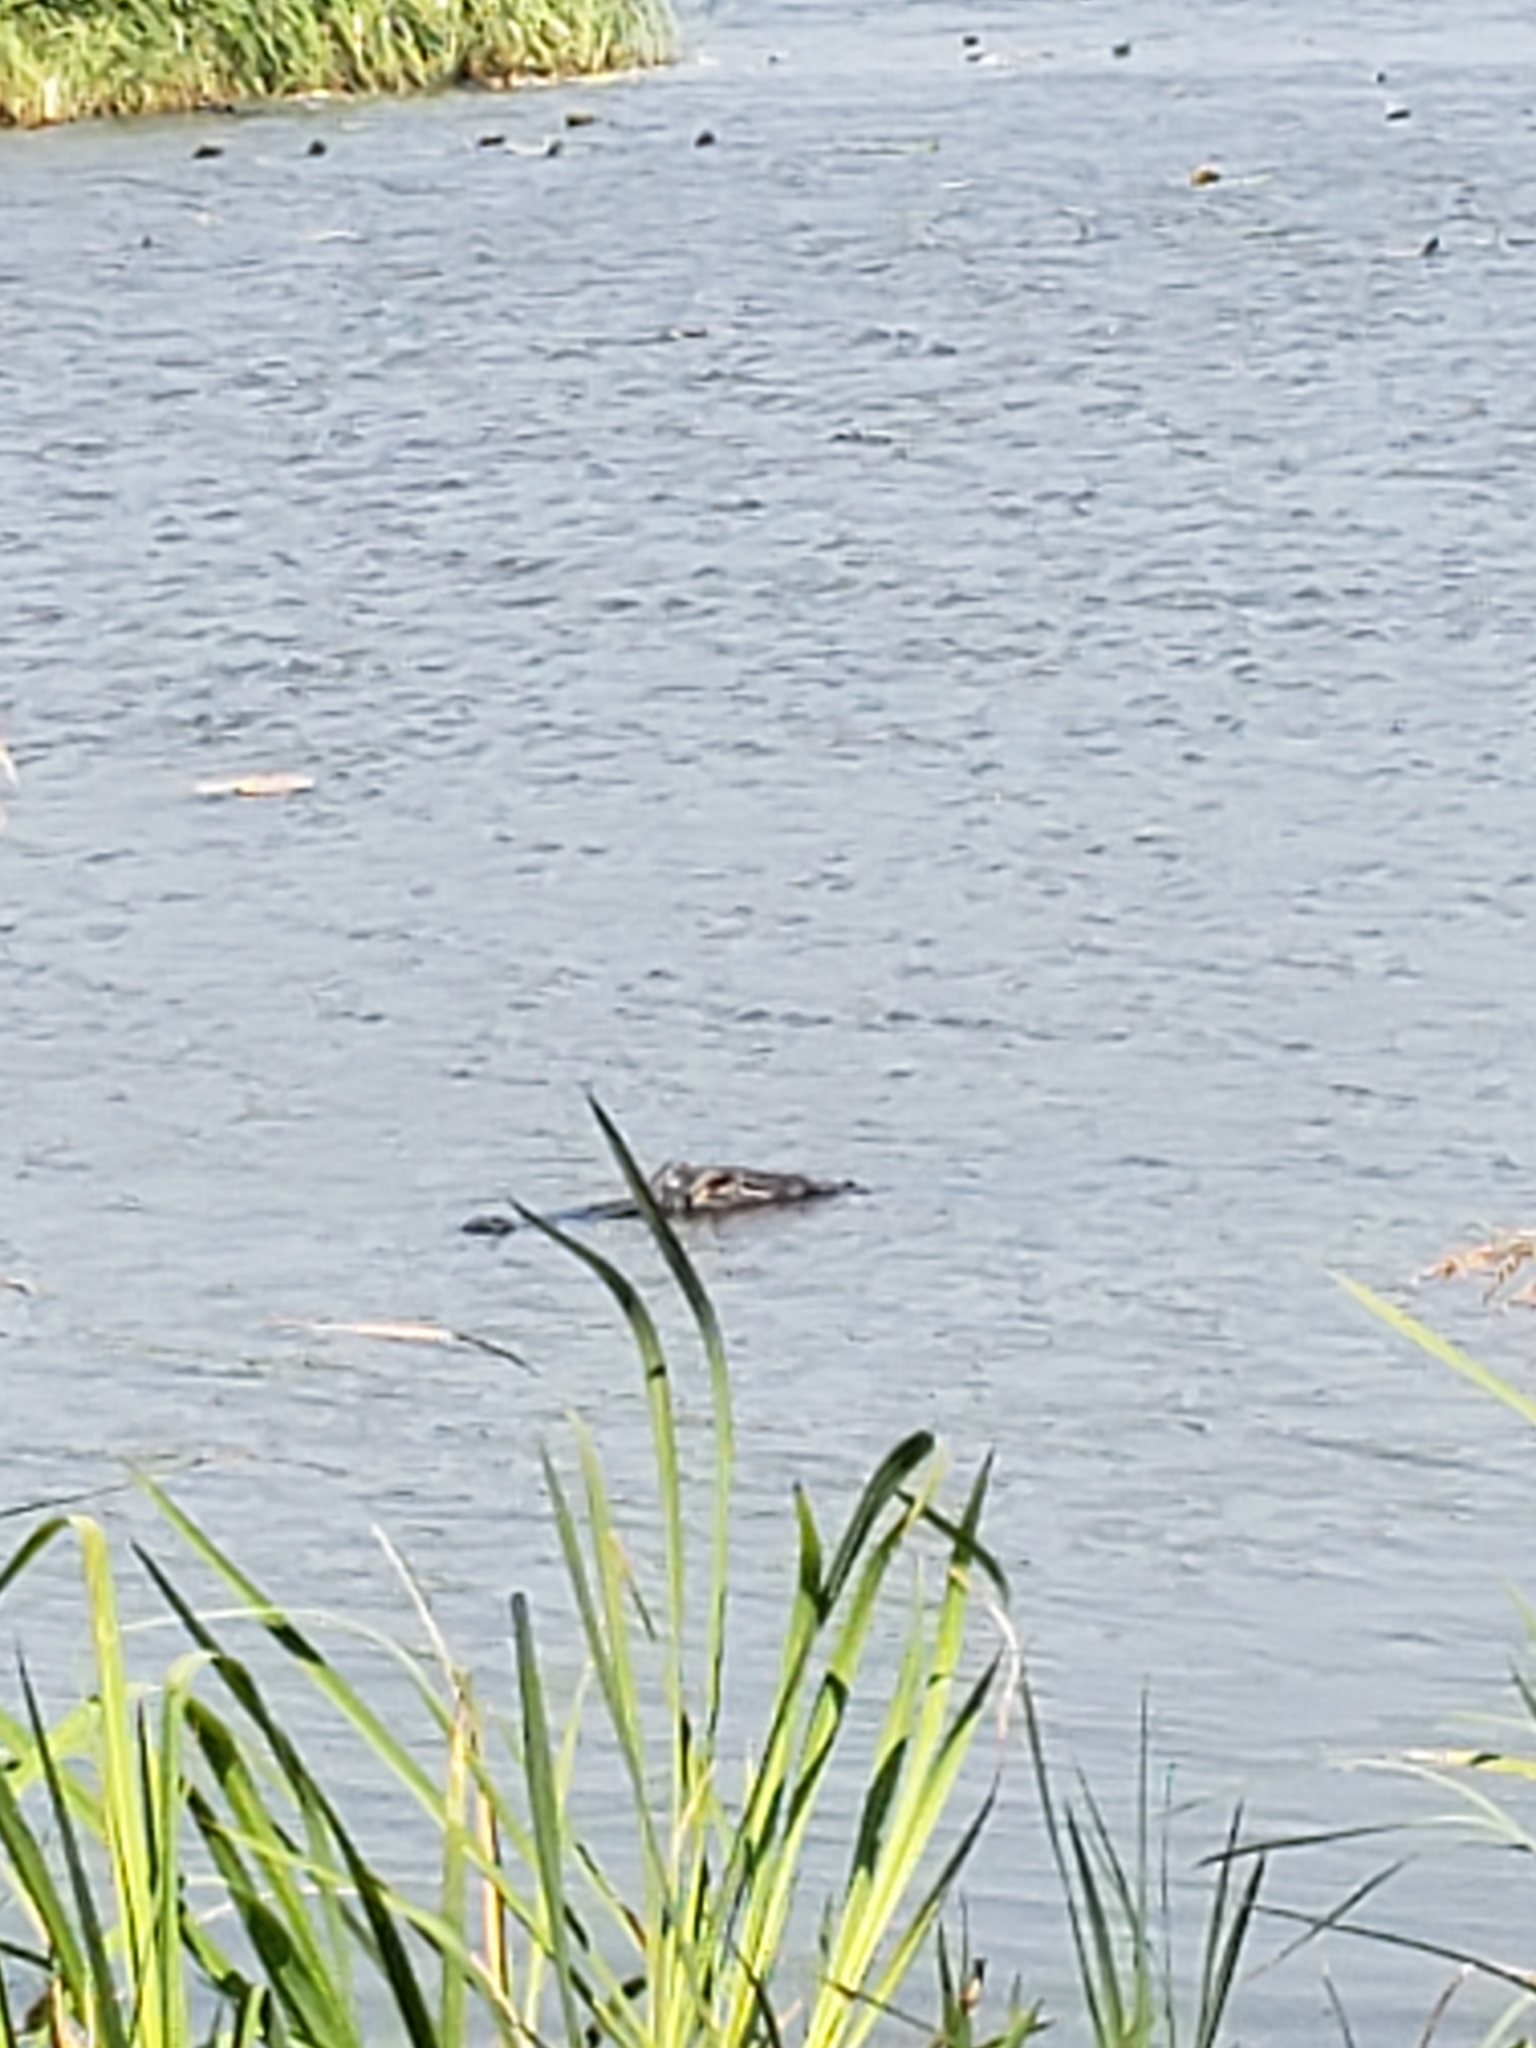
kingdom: Animalia
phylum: Chordata
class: Crocodylia
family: Alligatoridae
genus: Alligator
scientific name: Alligator mississippiensis
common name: American alligator
